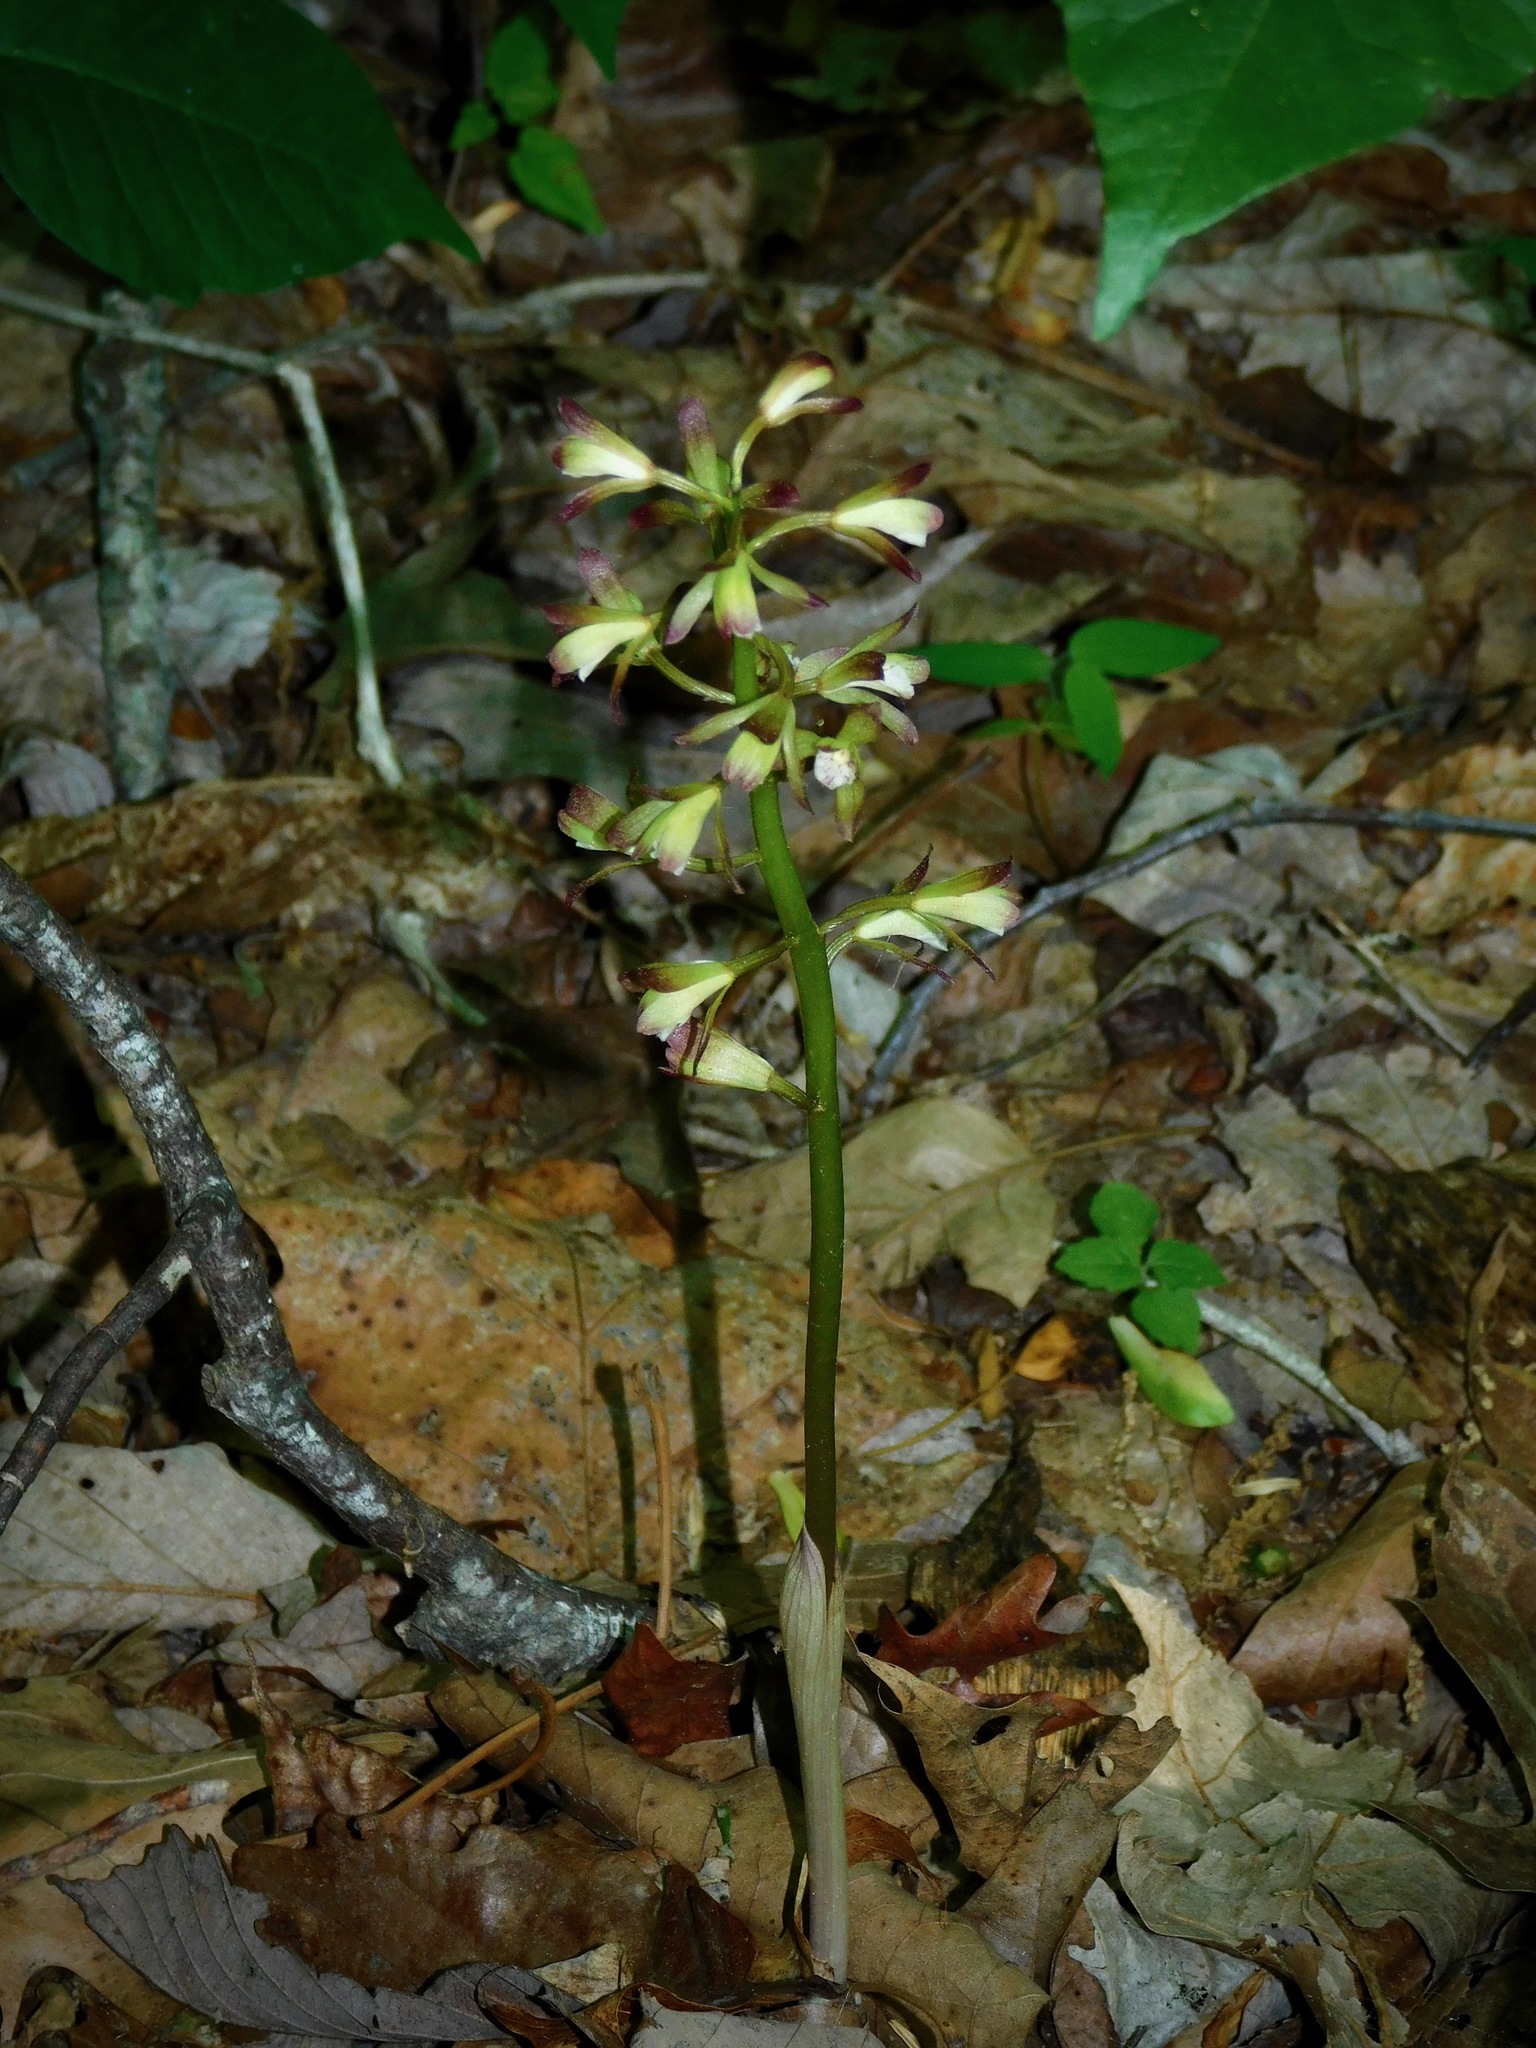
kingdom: Plantae
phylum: Tracheophyta
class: Liliopsida
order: Asparagales
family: Orchidaceae
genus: Aplectrum
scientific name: Aplectrum hyemale
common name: Adam-and-eve
